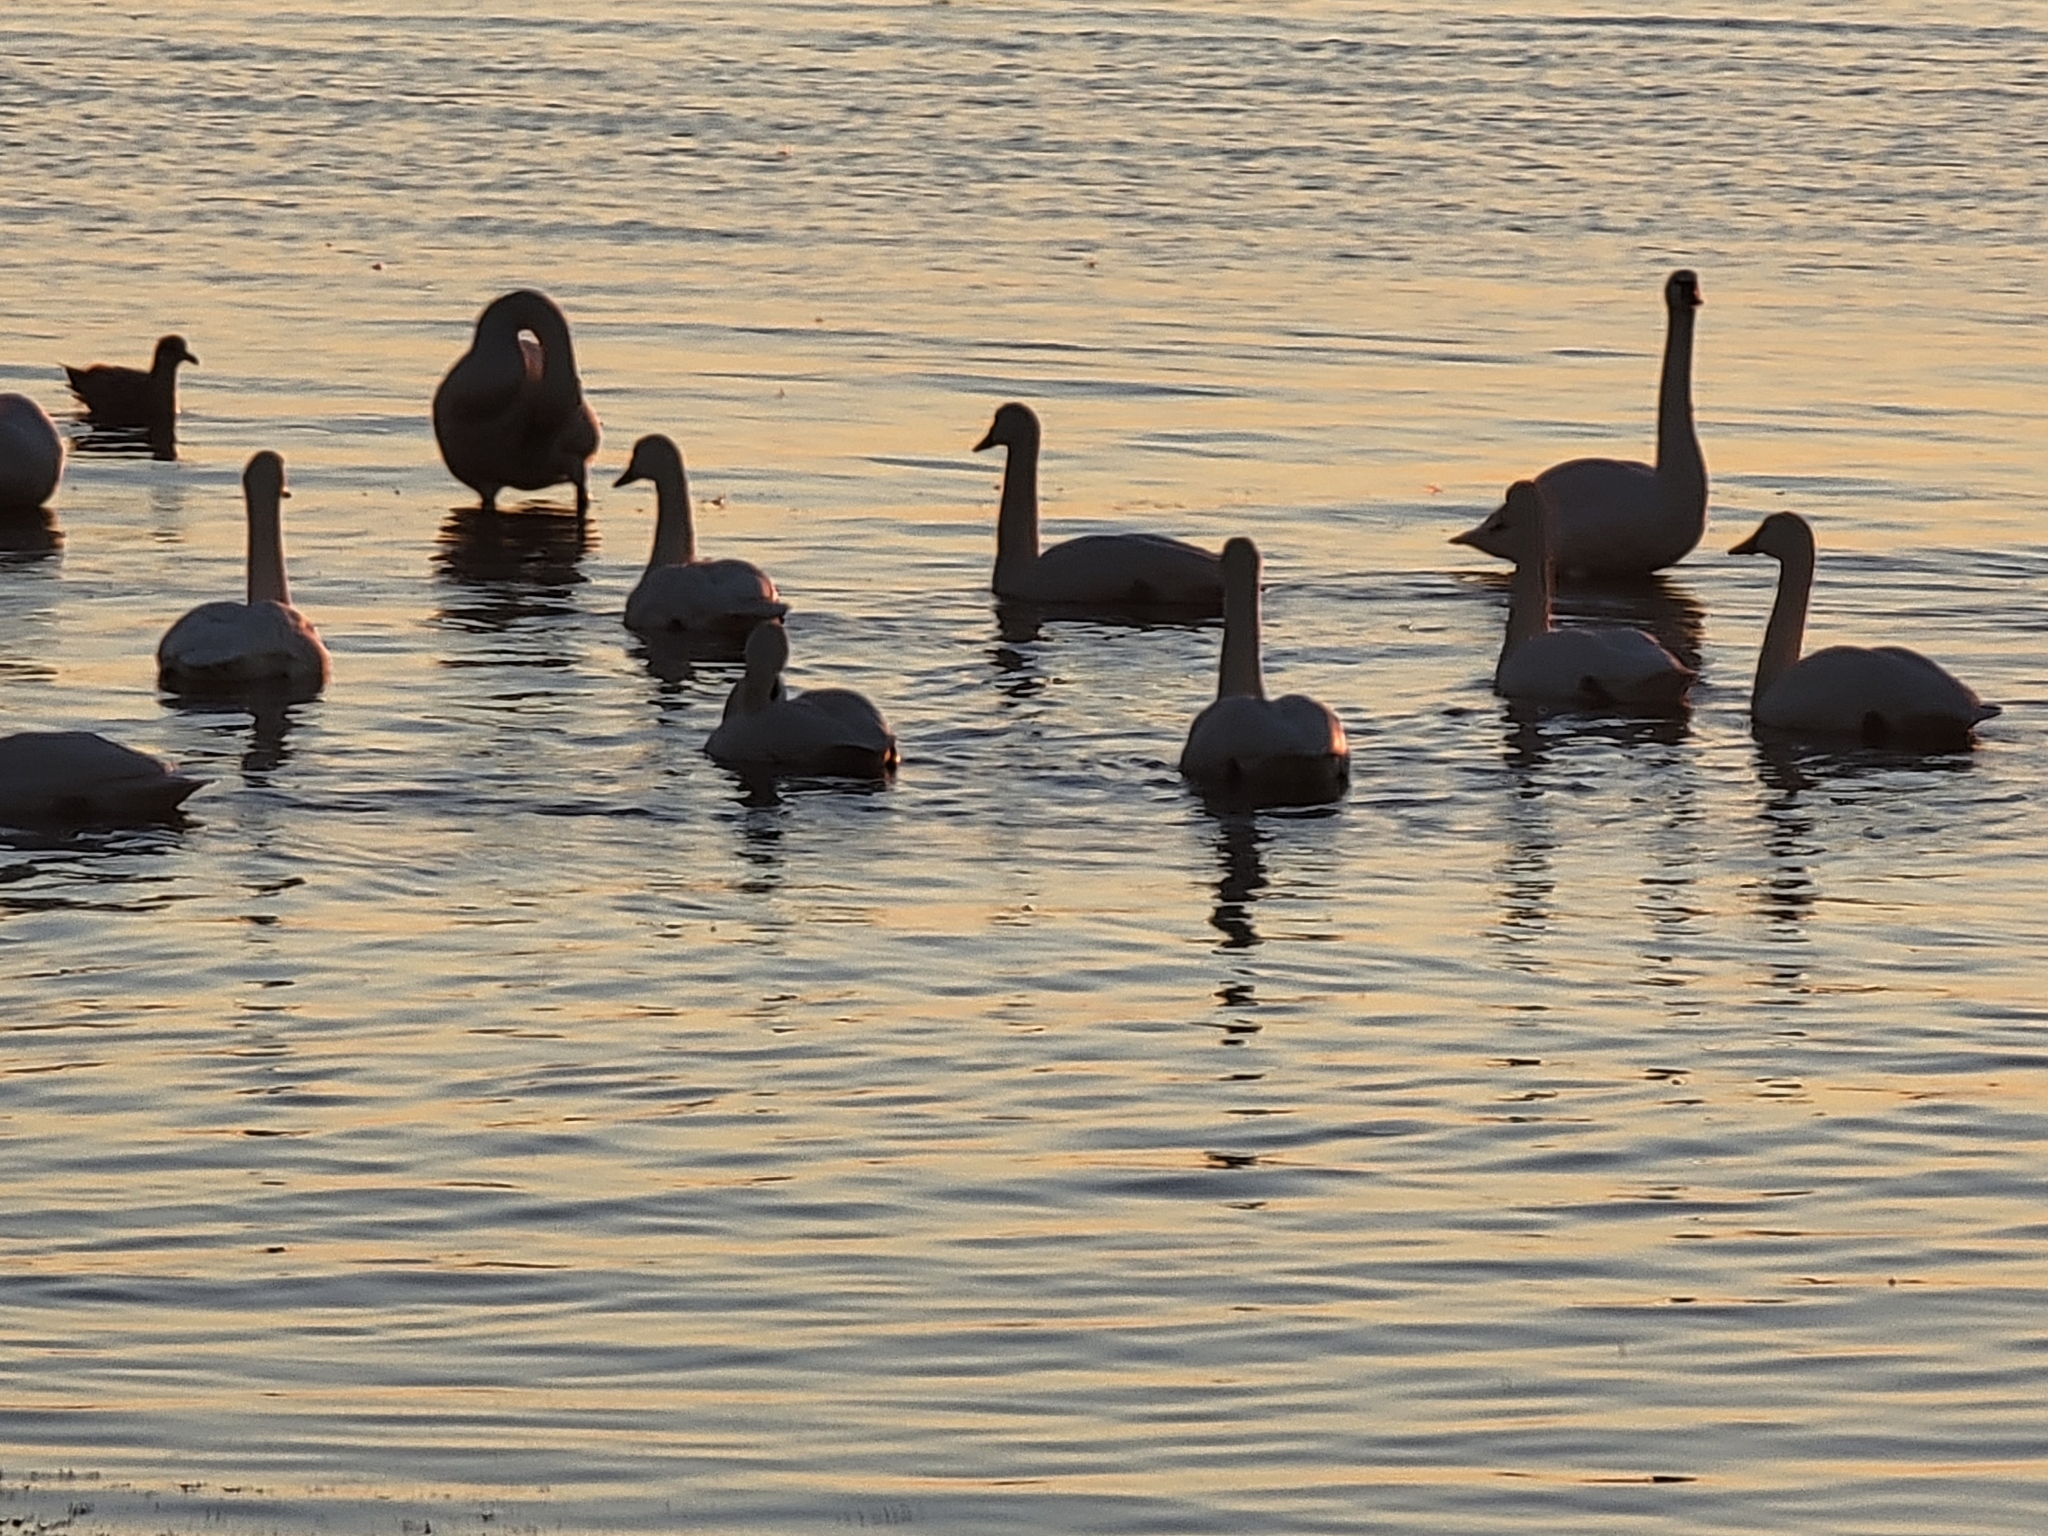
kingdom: Animalia
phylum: Chordata
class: Aves
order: Anseriformes
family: Anatidae
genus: Cygnus
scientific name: Cygnus columbianus
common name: Tundra swan
